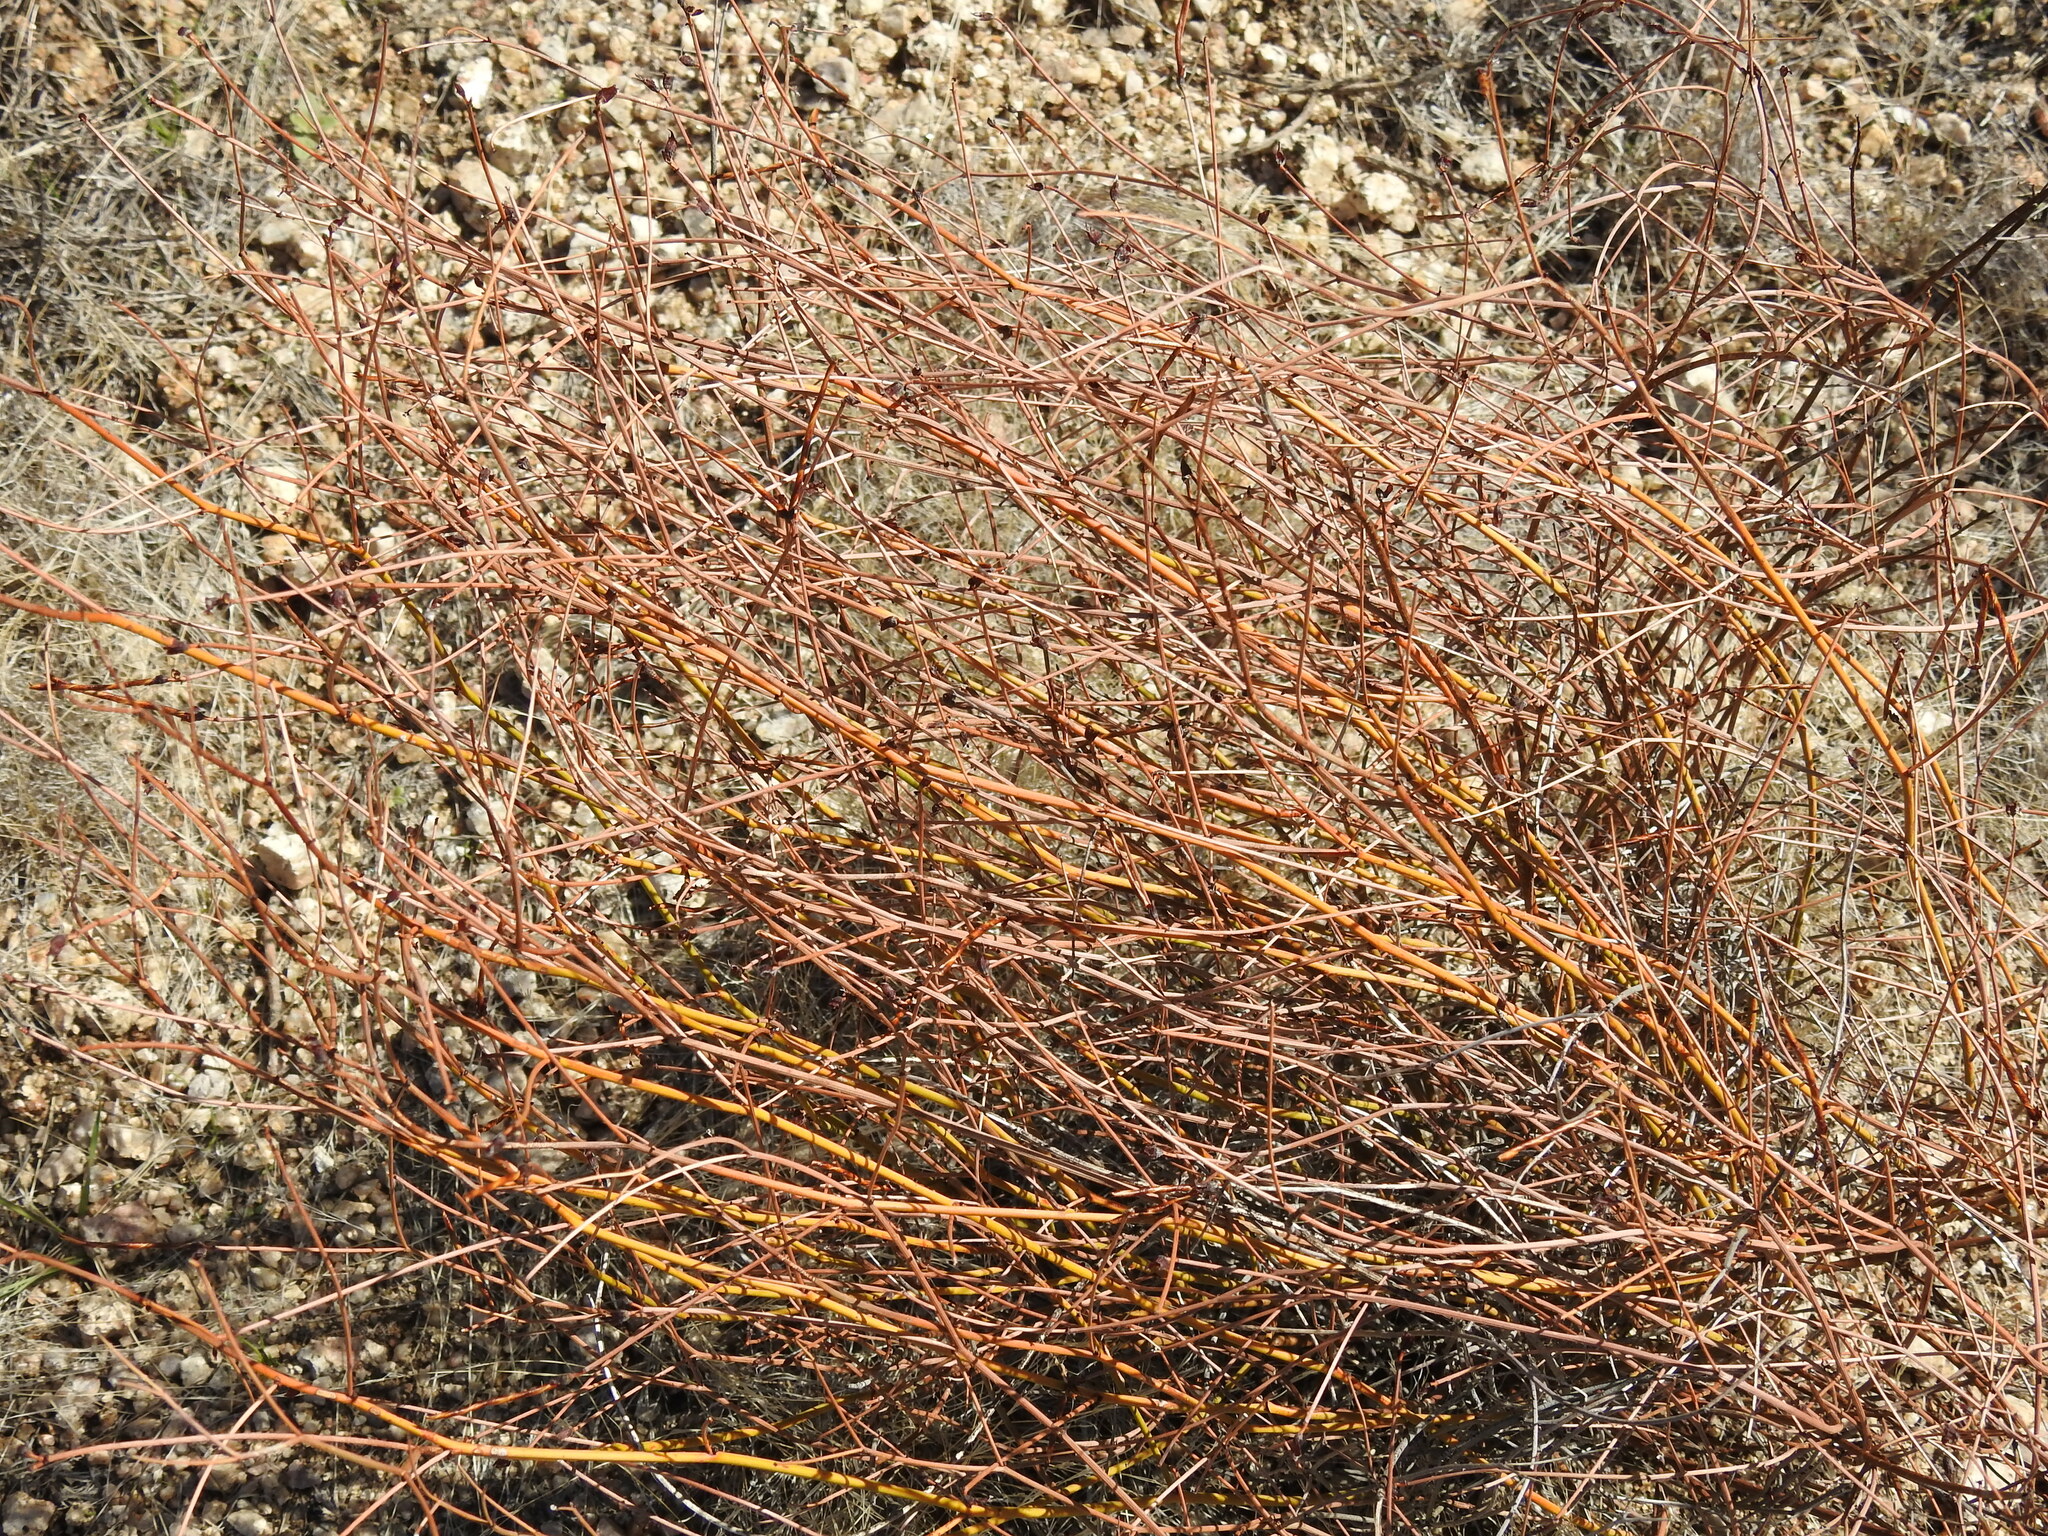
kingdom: Plantae
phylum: Tracheophyta
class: Magnoliopsida
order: Fabales
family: Fabaceae
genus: Acmispon
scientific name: Acmispon rigidus
